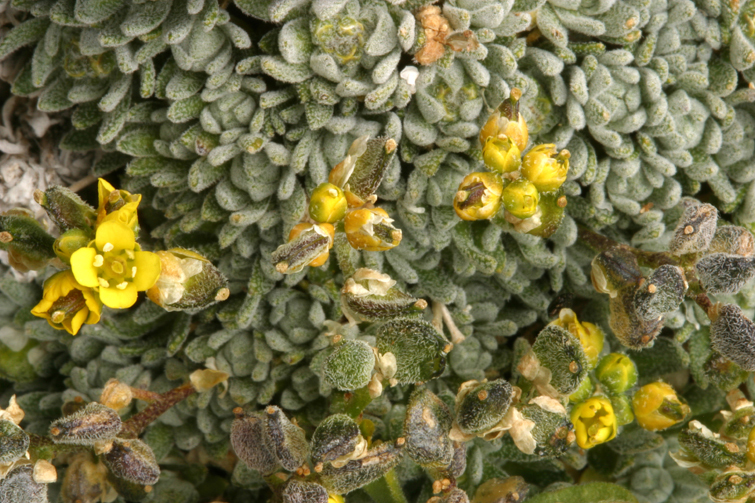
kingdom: Plantae
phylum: Tracheophyta
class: Magnoliopsida
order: Brassicales
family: Brassicaceae
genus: Draba
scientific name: Draba oligosperma
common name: Few-seed draba
